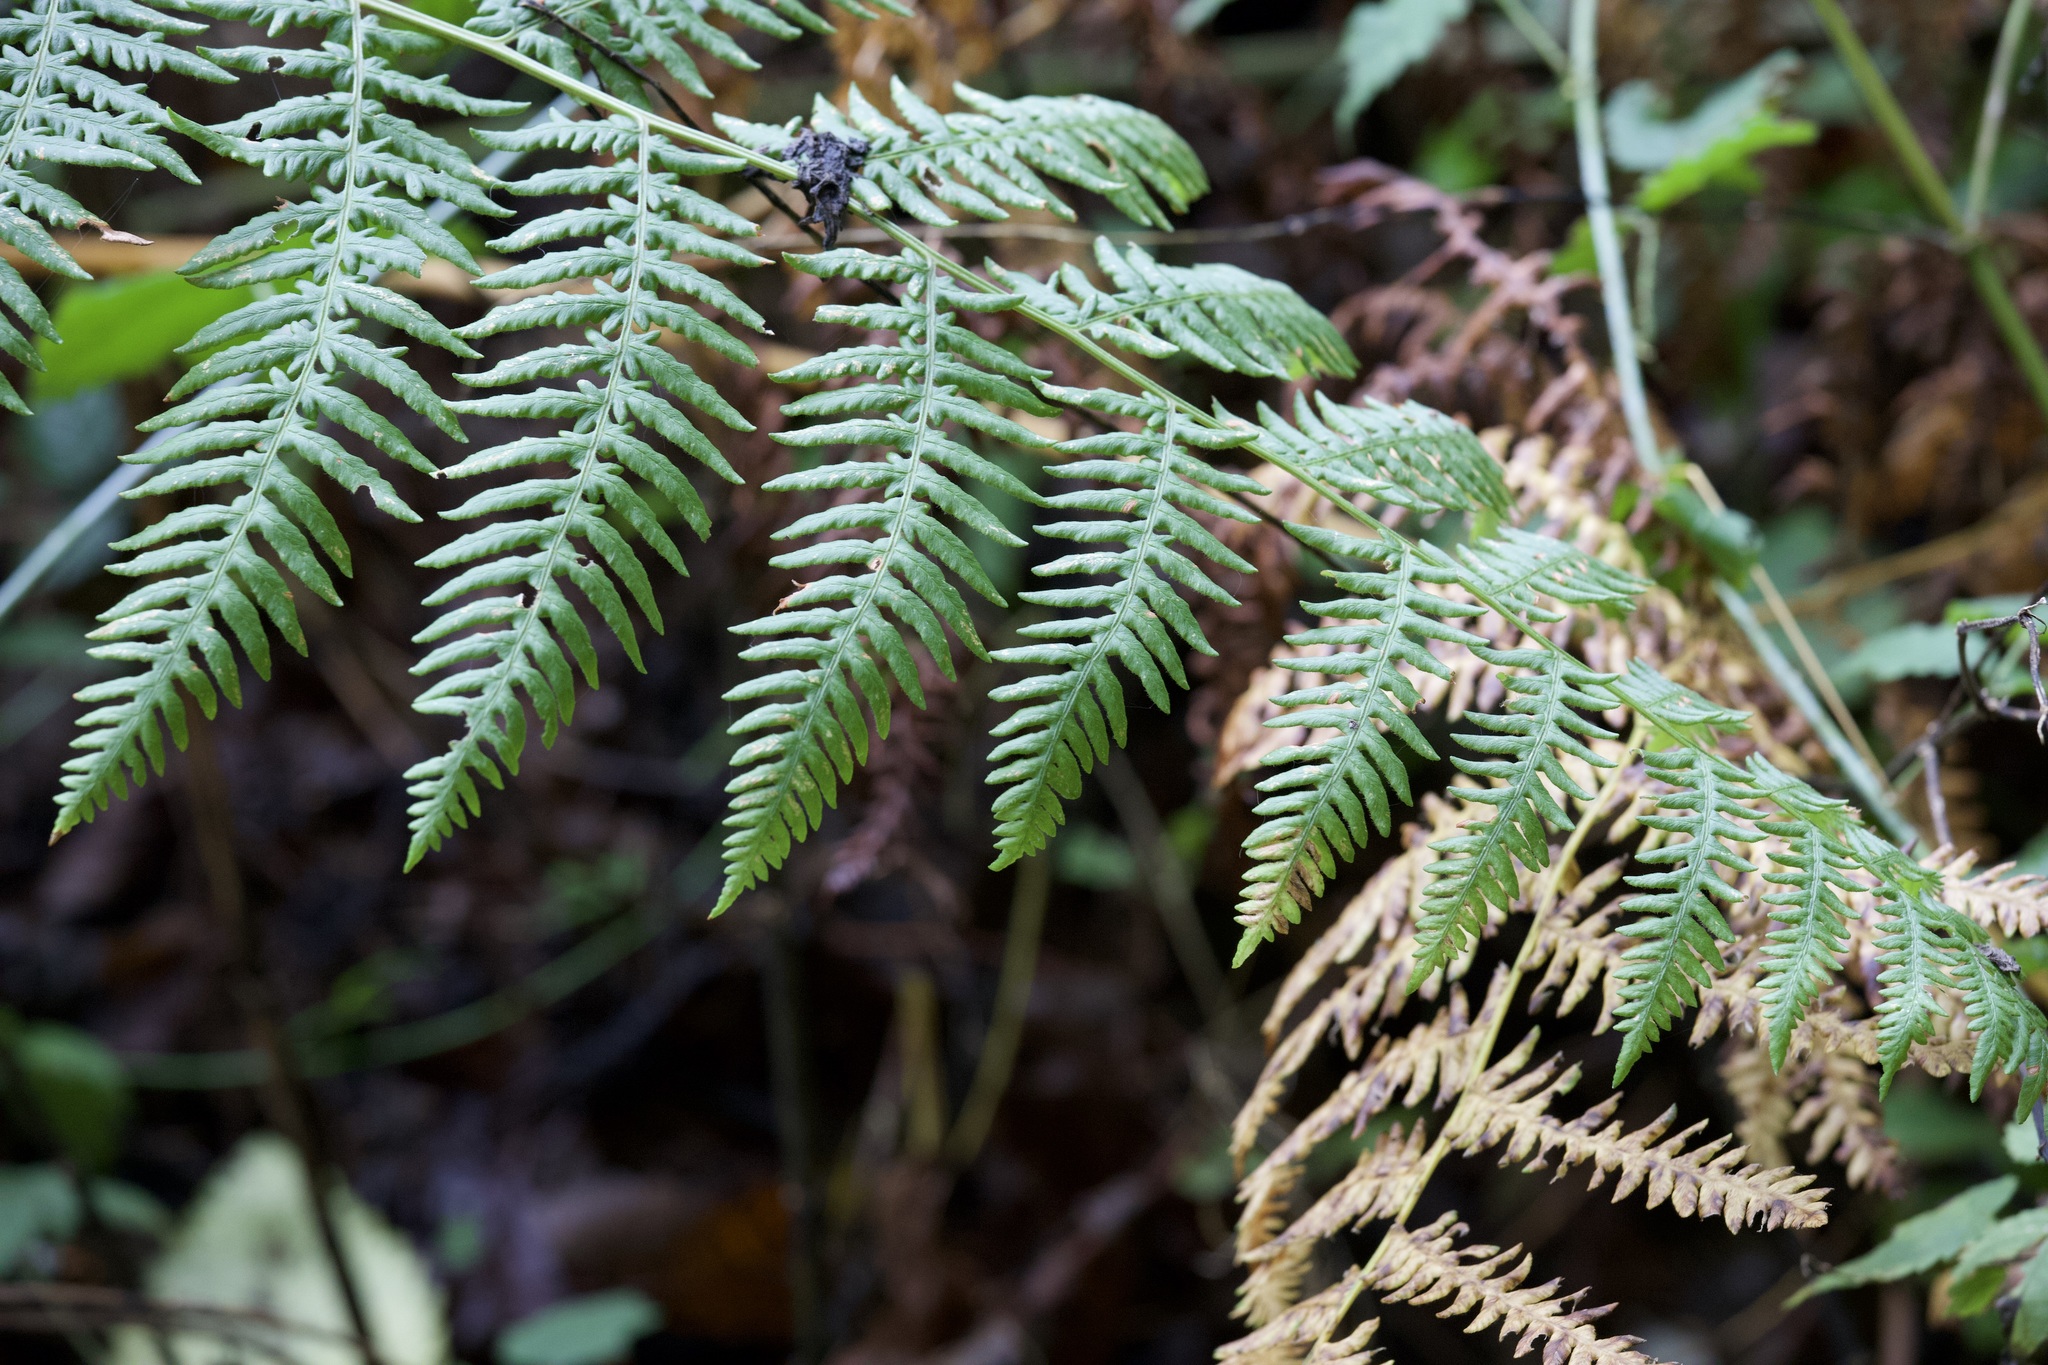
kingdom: Plantae
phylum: Tracheophyta
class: Polypodiopsida
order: Polypodiales
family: Dennstaedtiaceae
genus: Pteridium
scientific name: Pteridium aquilinum
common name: Bracken
